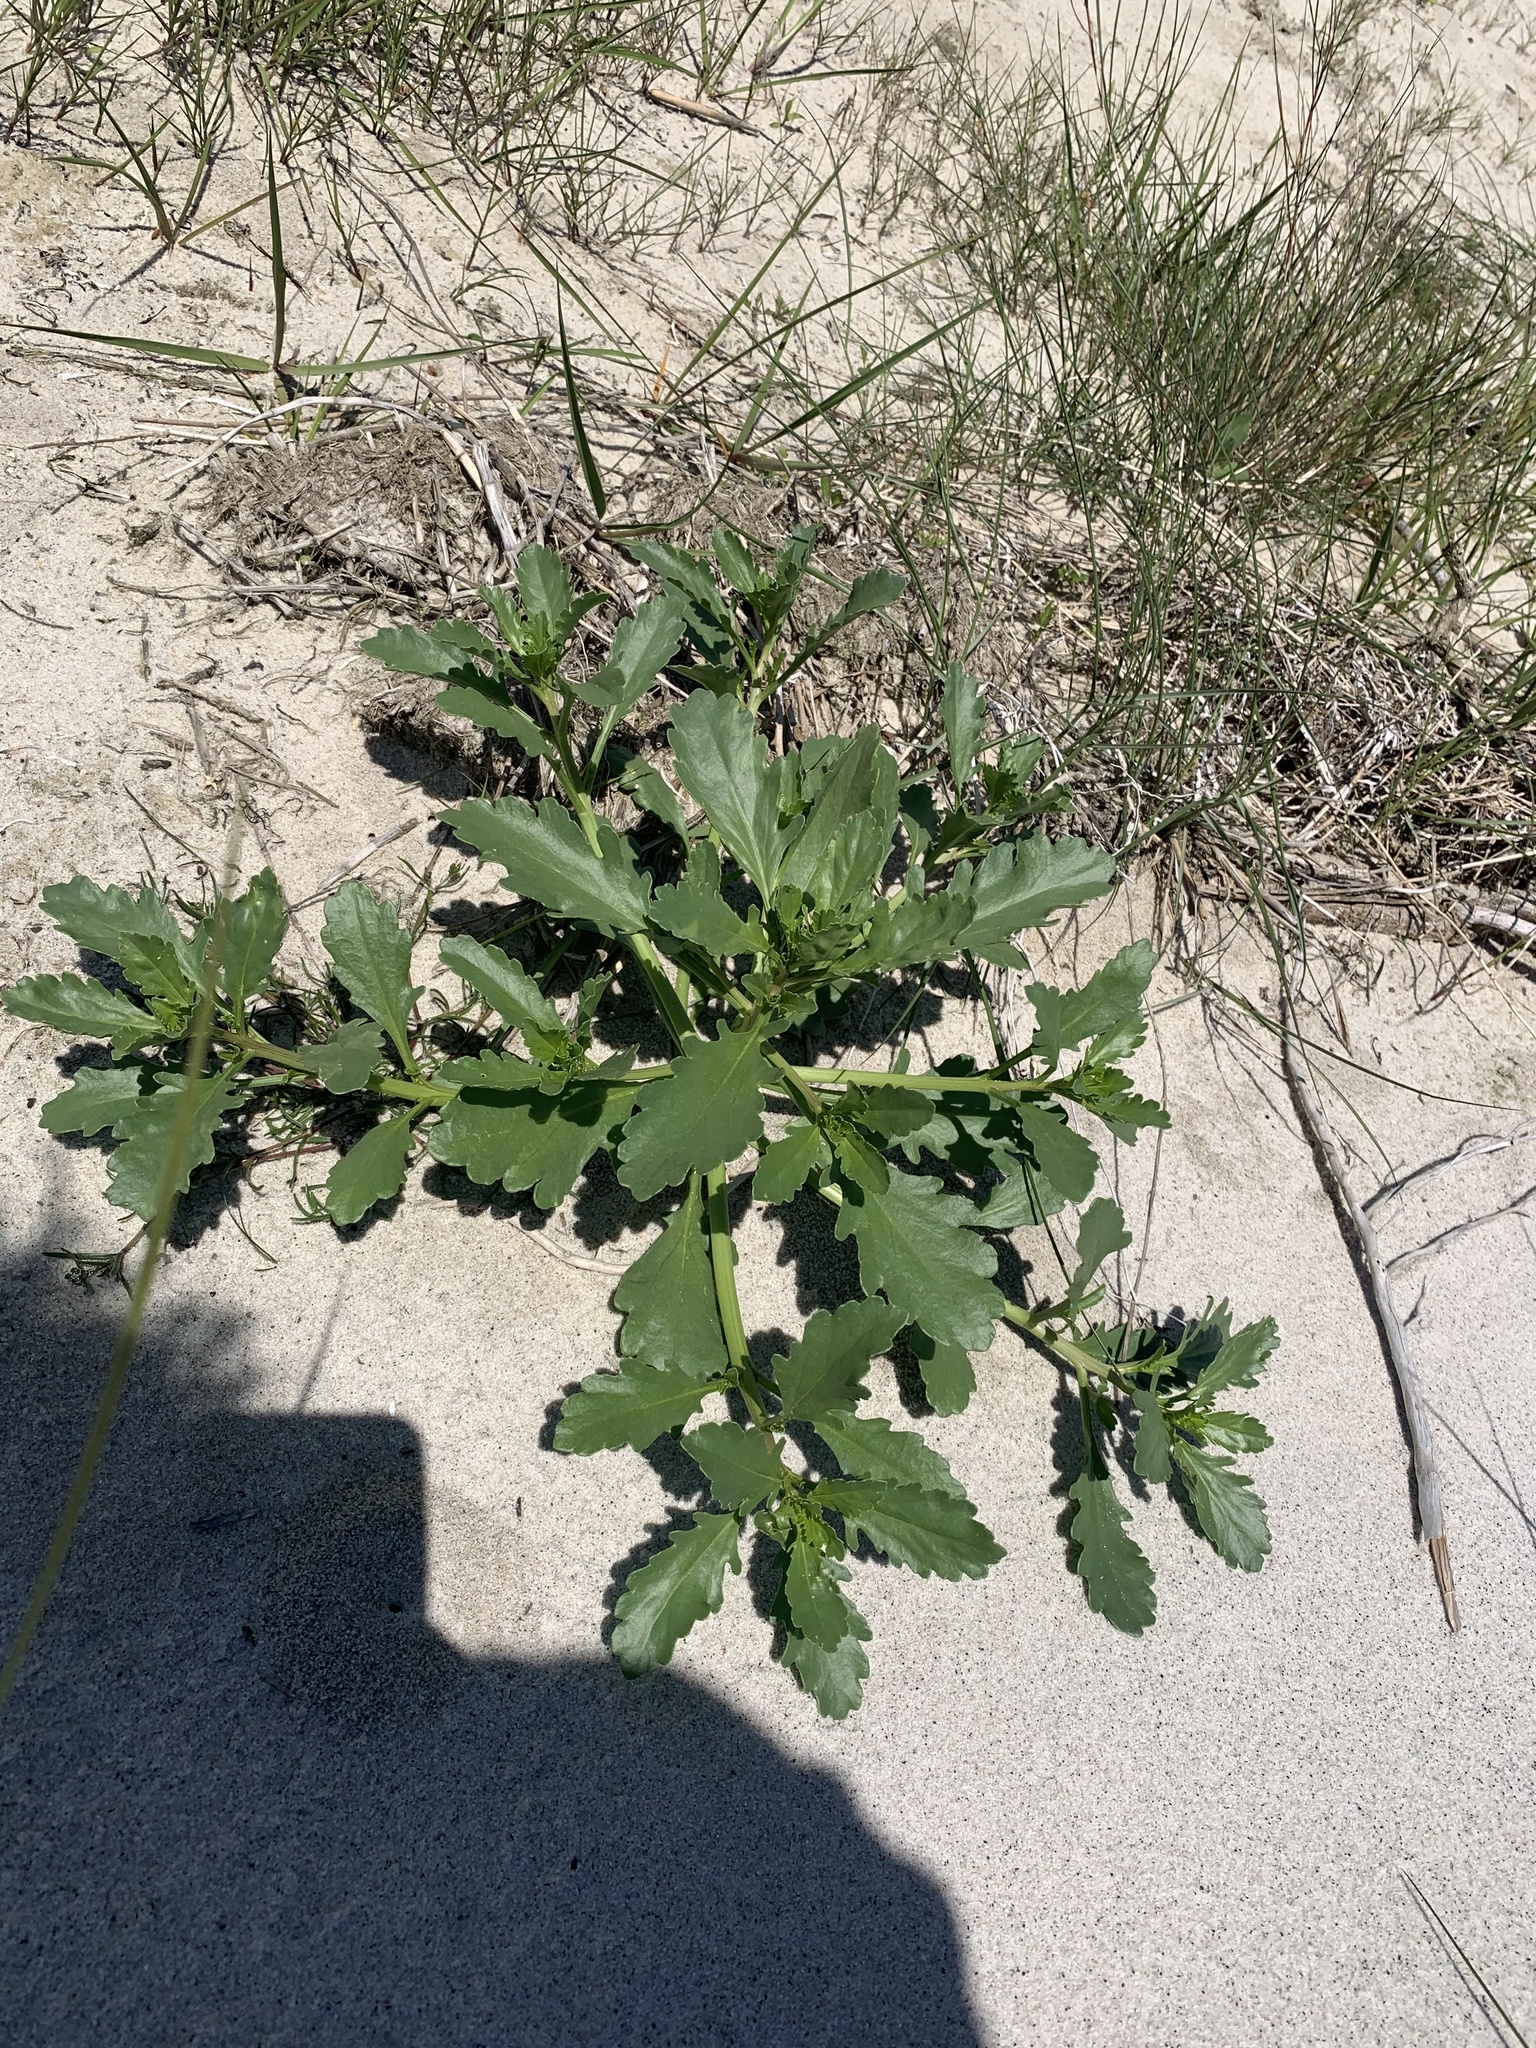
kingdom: Plantae
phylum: Tracheophyta
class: Magnoliopsida
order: Brassicales
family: Brassicaceae
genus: Cakile
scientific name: Cakile edentula
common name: American sea rocket
